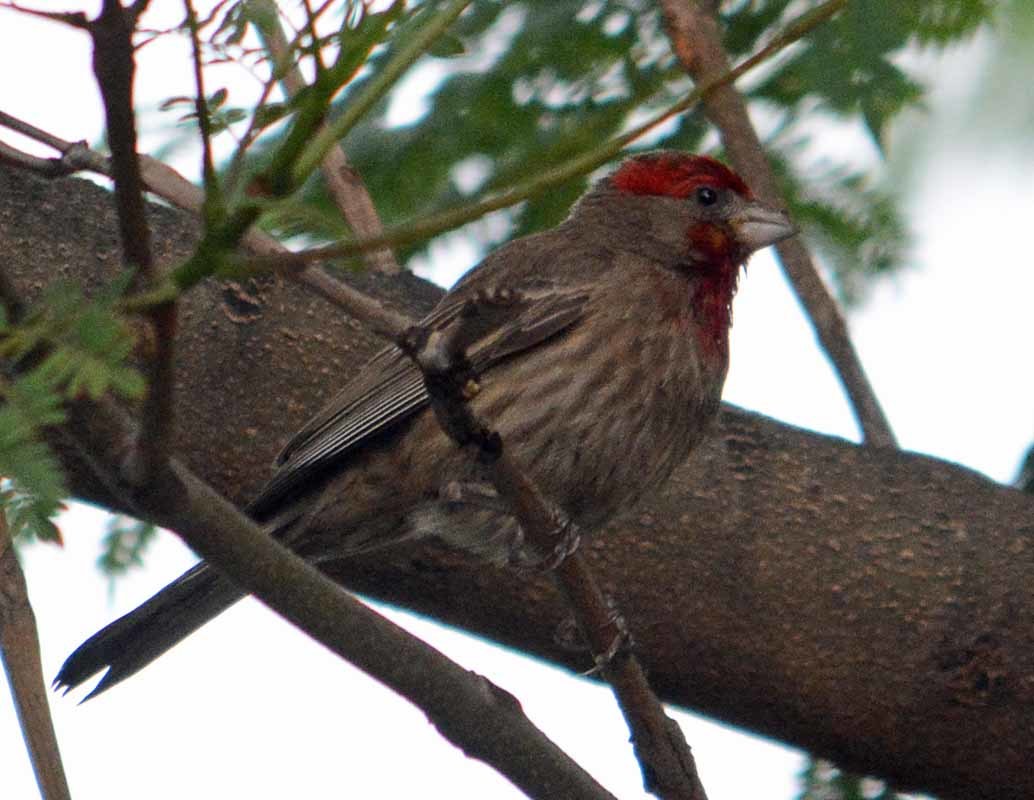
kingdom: Animalia
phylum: Chordata
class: Aves
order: Passeriformes
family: Fringillidae
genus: Haemorhous
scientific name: Haemorhous mexicanus
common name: House finch
